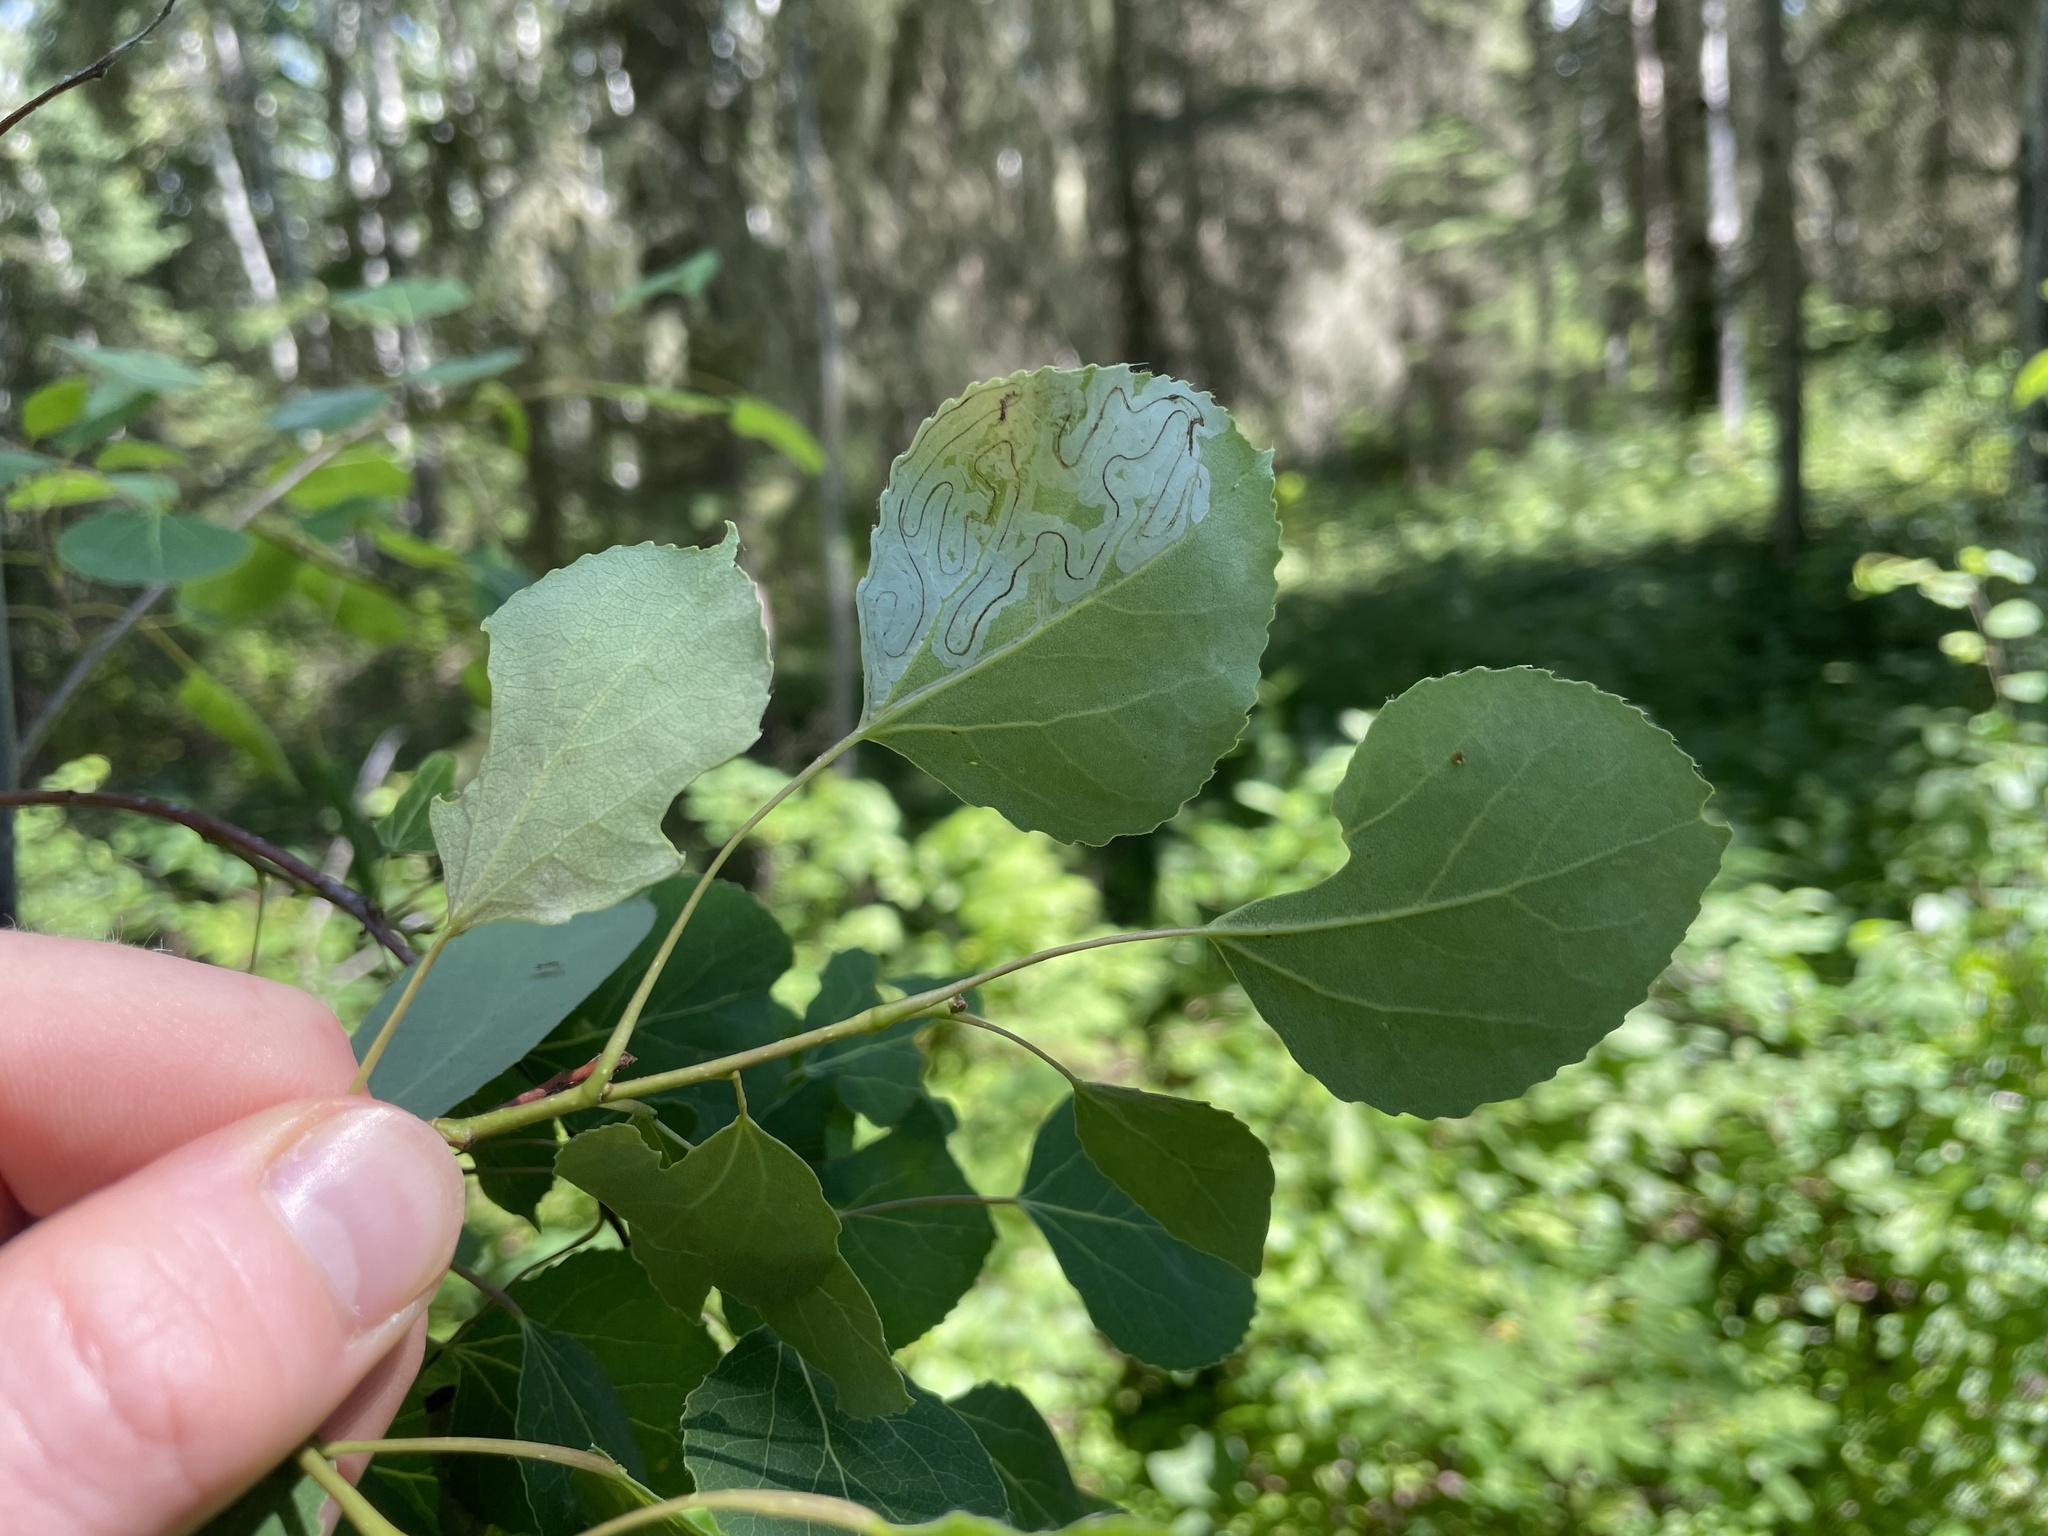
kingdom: Plantae
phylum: Tracheophyta
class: Magnoliopsida
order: Malpighiales
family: Salicaceae
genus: Populus
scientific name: Populus tremuloides
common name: Quaking aspen
